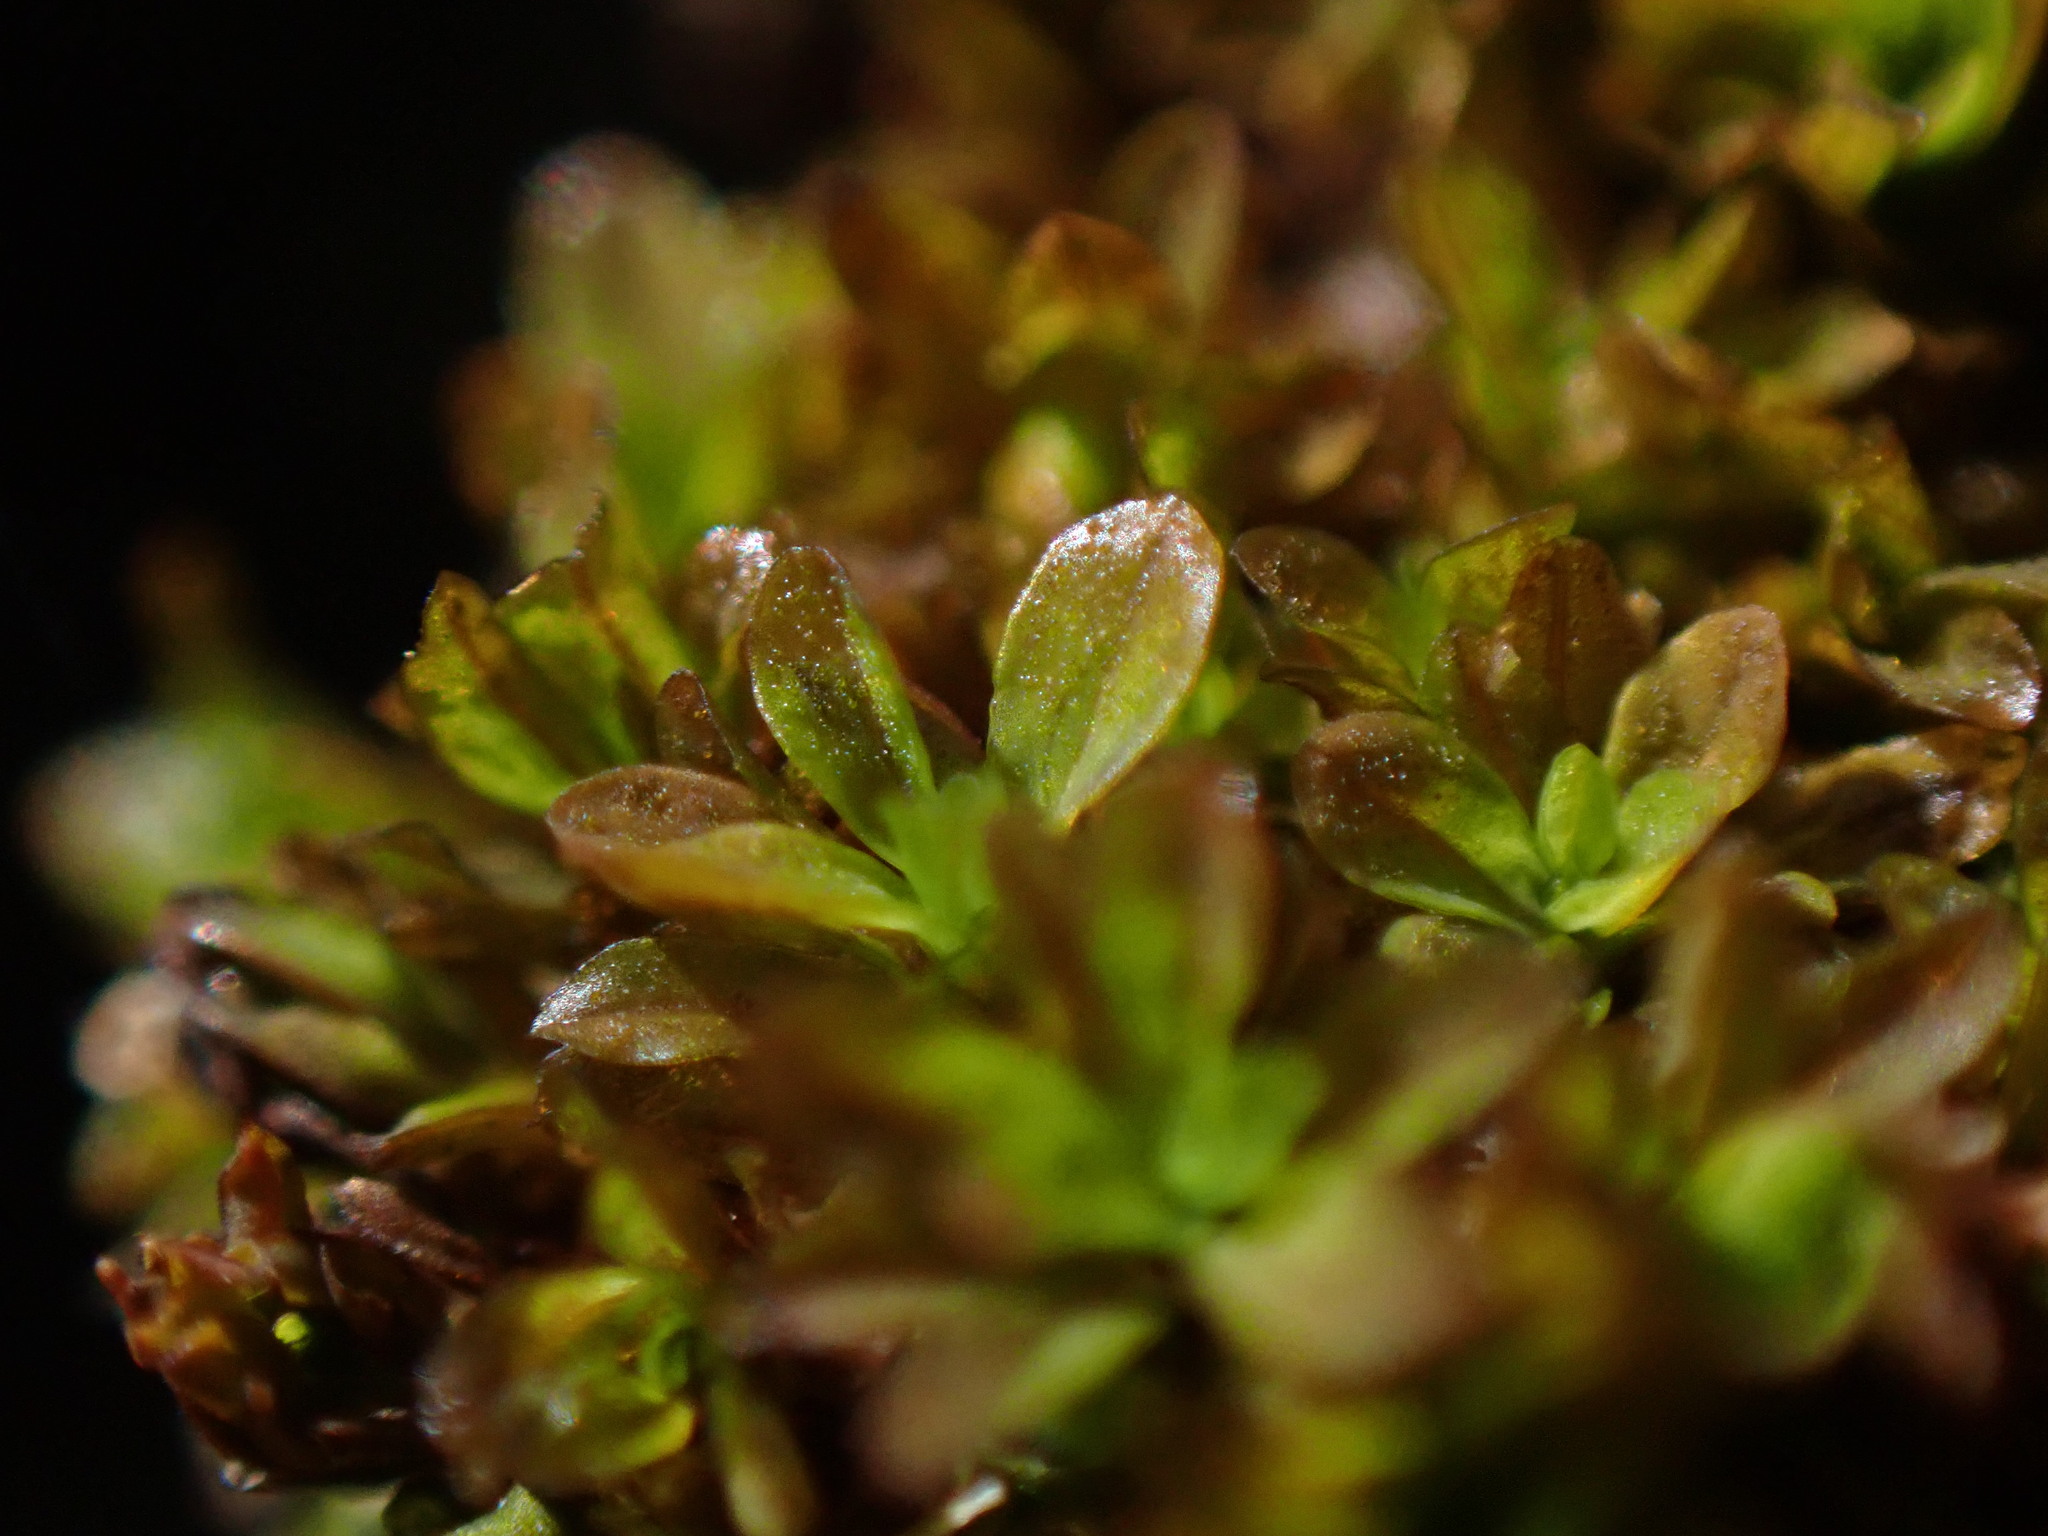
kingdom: Plantae
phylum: Bryophyta
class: Bryopsida
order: Pottiales
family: Pottiaceae
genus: Syntrichia
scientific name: Syntrichia latifolia
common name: Water screw-moss
